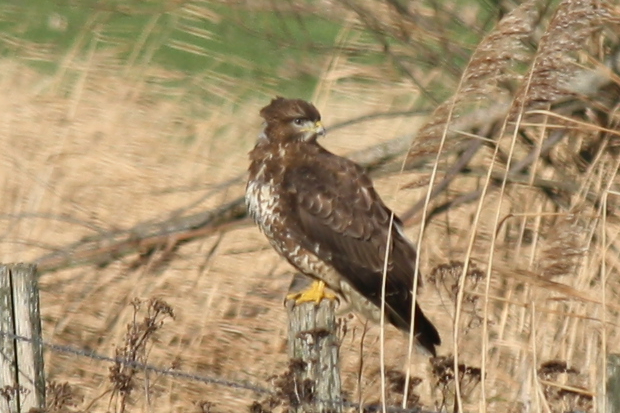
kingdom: Animalia
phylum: Chordata
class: Aves
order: Accipitriformes
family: Accipitridae
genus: Buteo
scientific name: Buteo buteo
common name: Common buzzard
